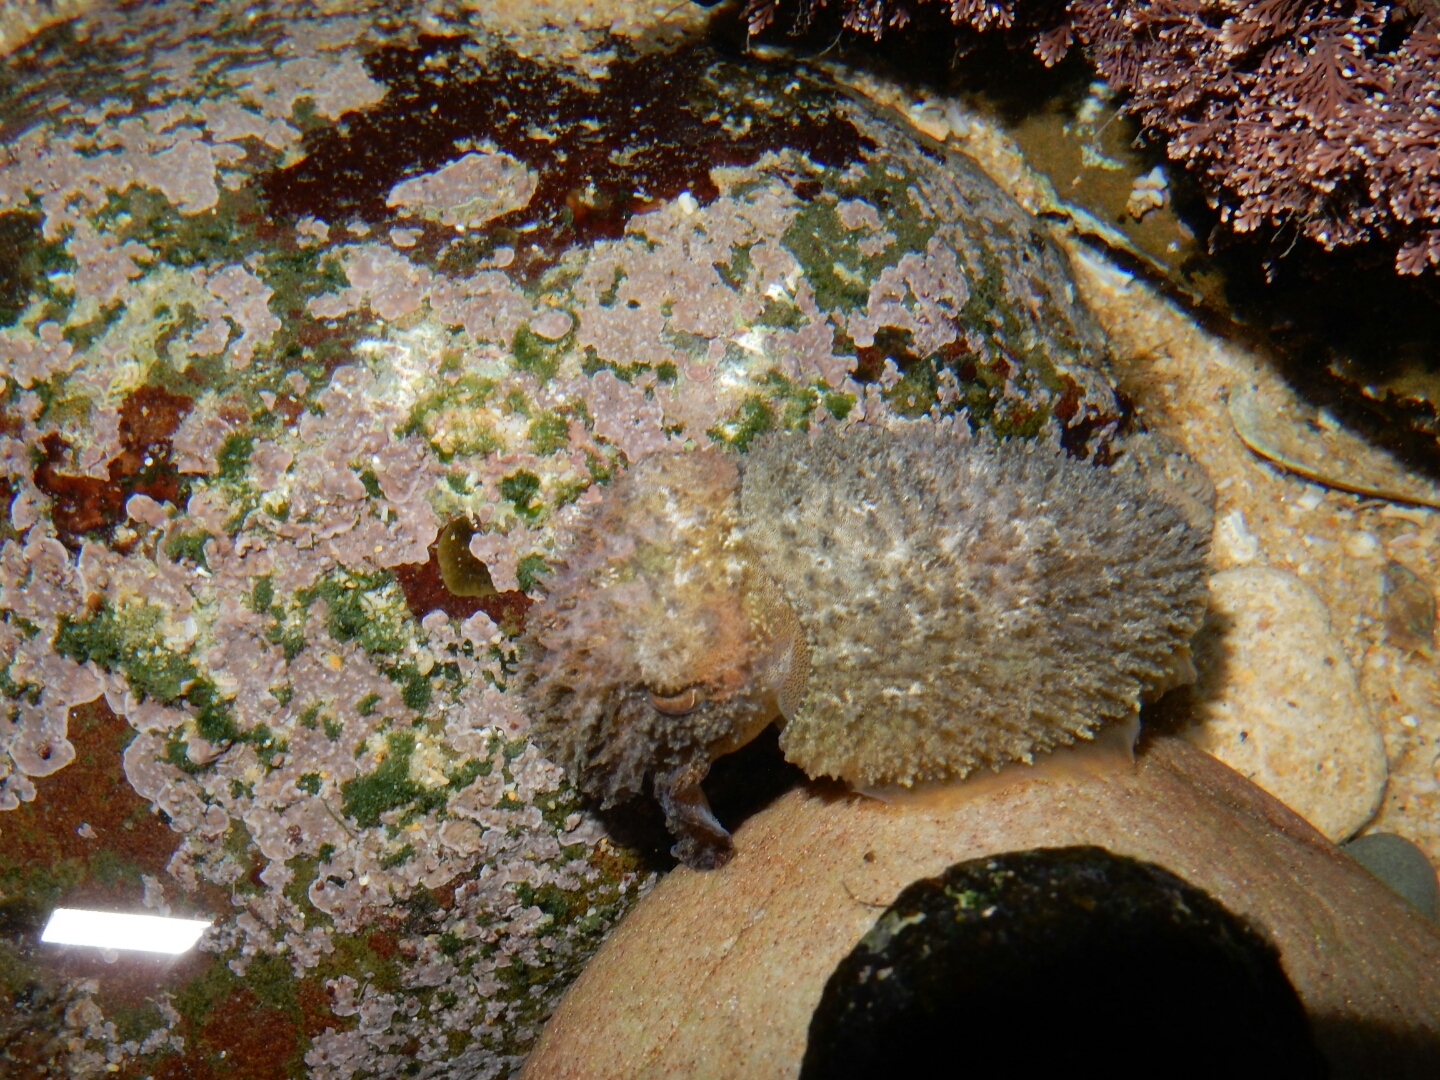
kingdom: Animalia
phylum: Mollusca
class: Cephalopoda
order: Sepiida
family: Sepiidae
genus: Sepia
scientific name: Sepia tuberculata
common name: Tuberculate cuttlefish
